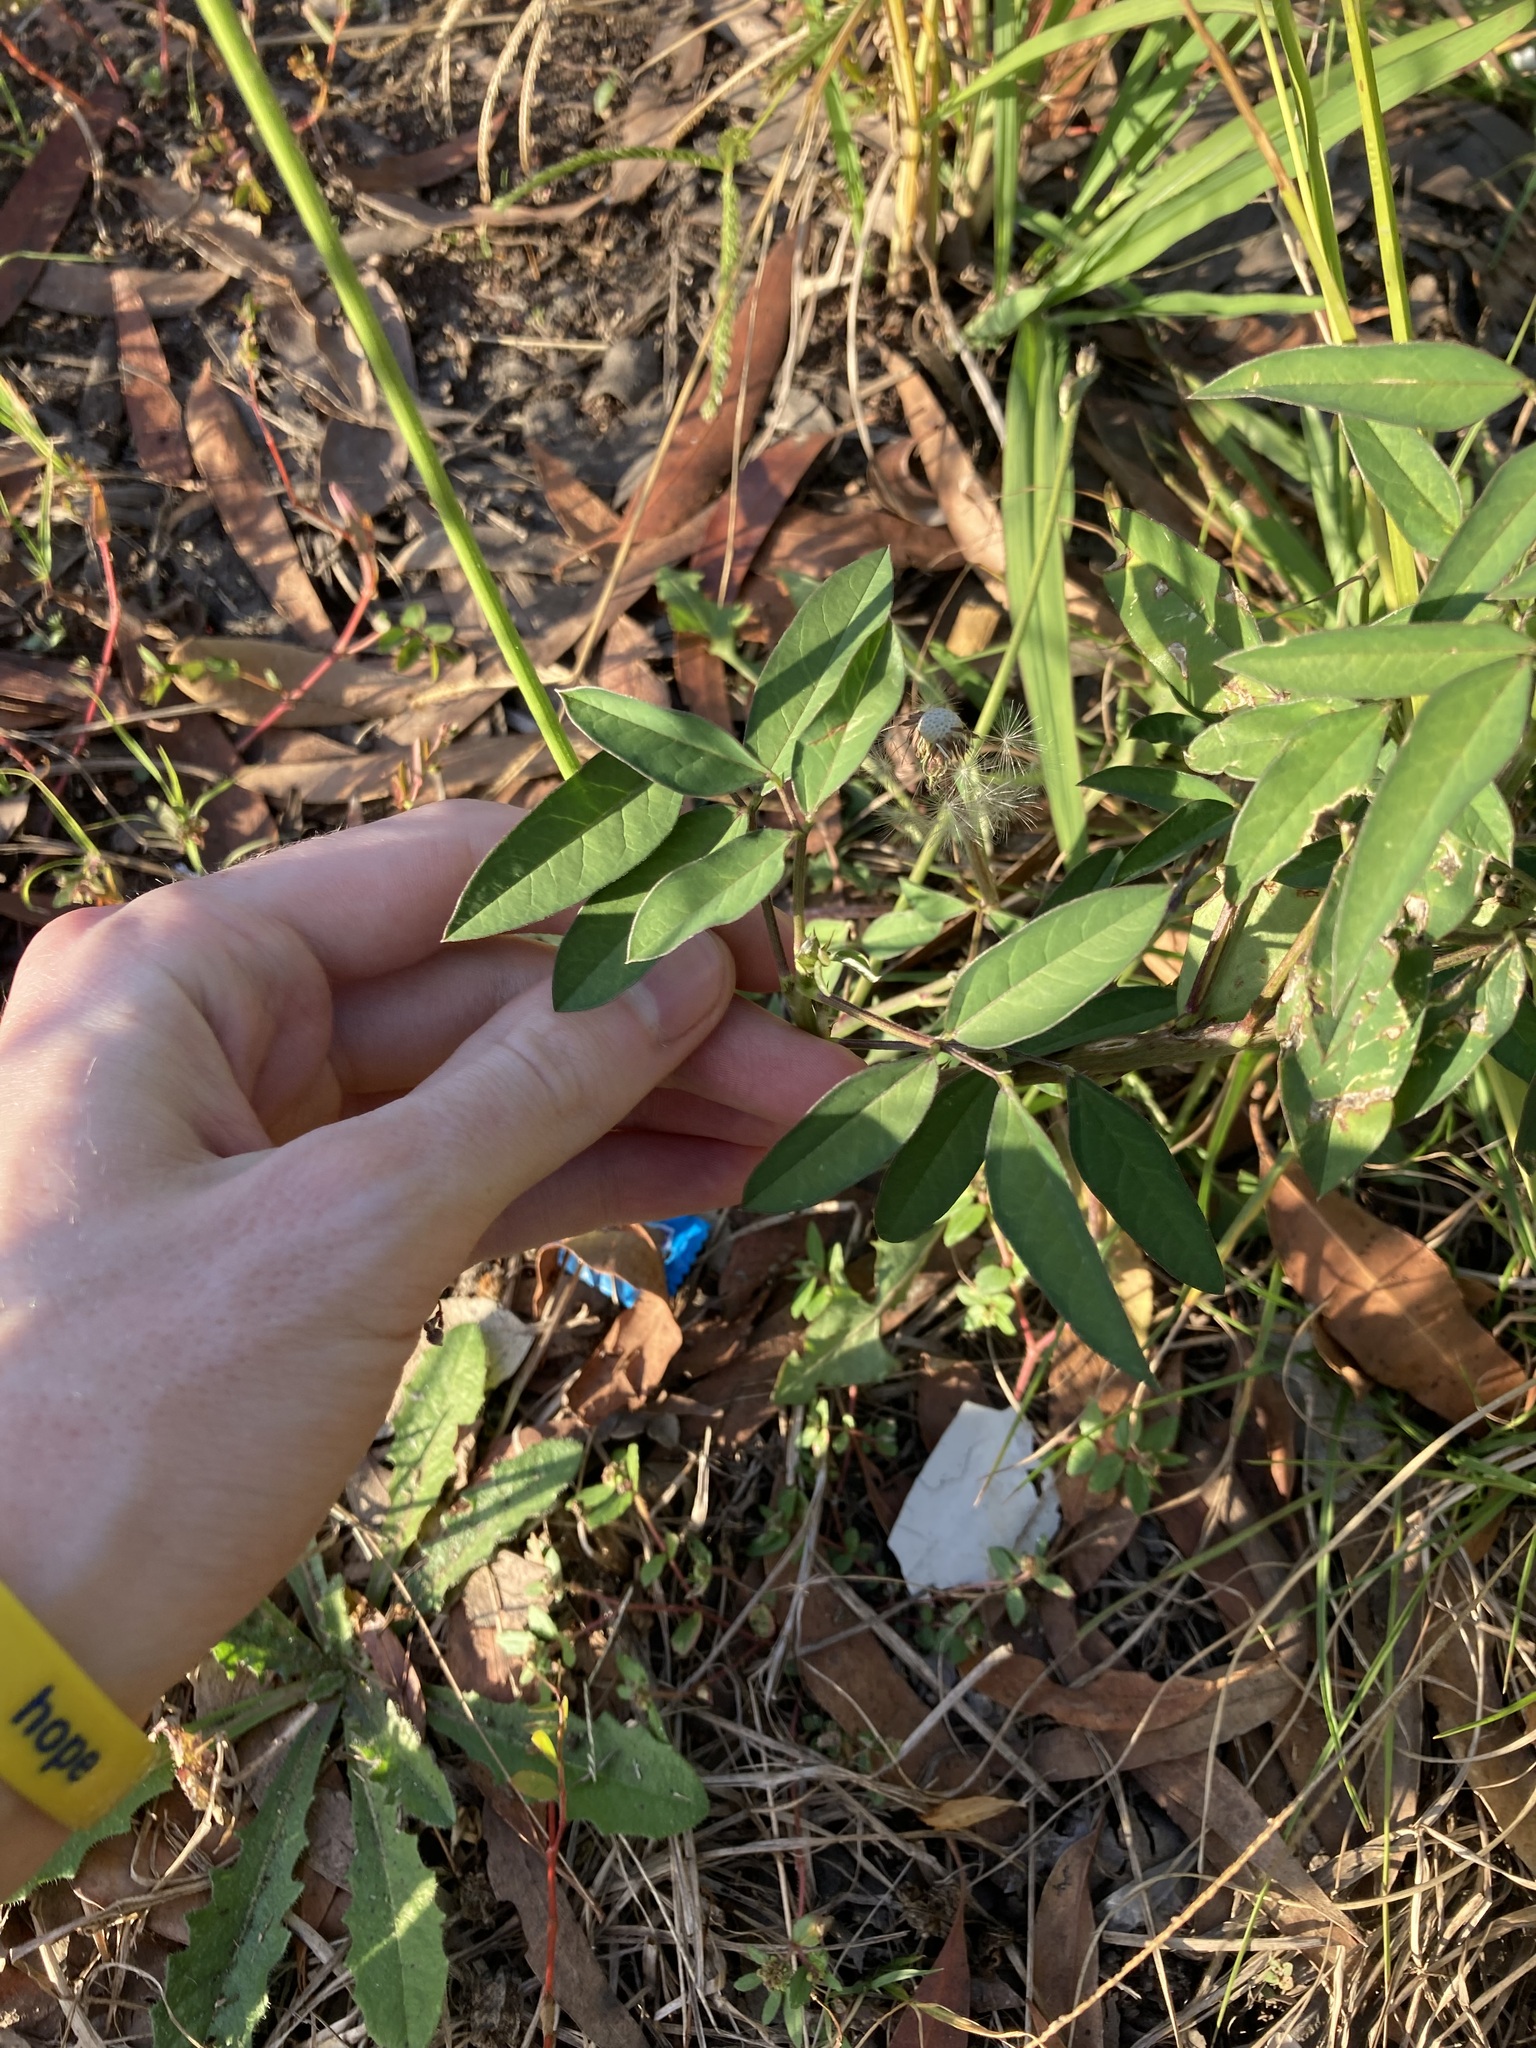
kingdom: Plantae
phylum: Tracheophyta
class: Magnoliopsida
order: Fabales
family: Fabaceae
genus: Macroptilium
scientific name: Macroptilium lathyroides
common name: Wild bushbean
